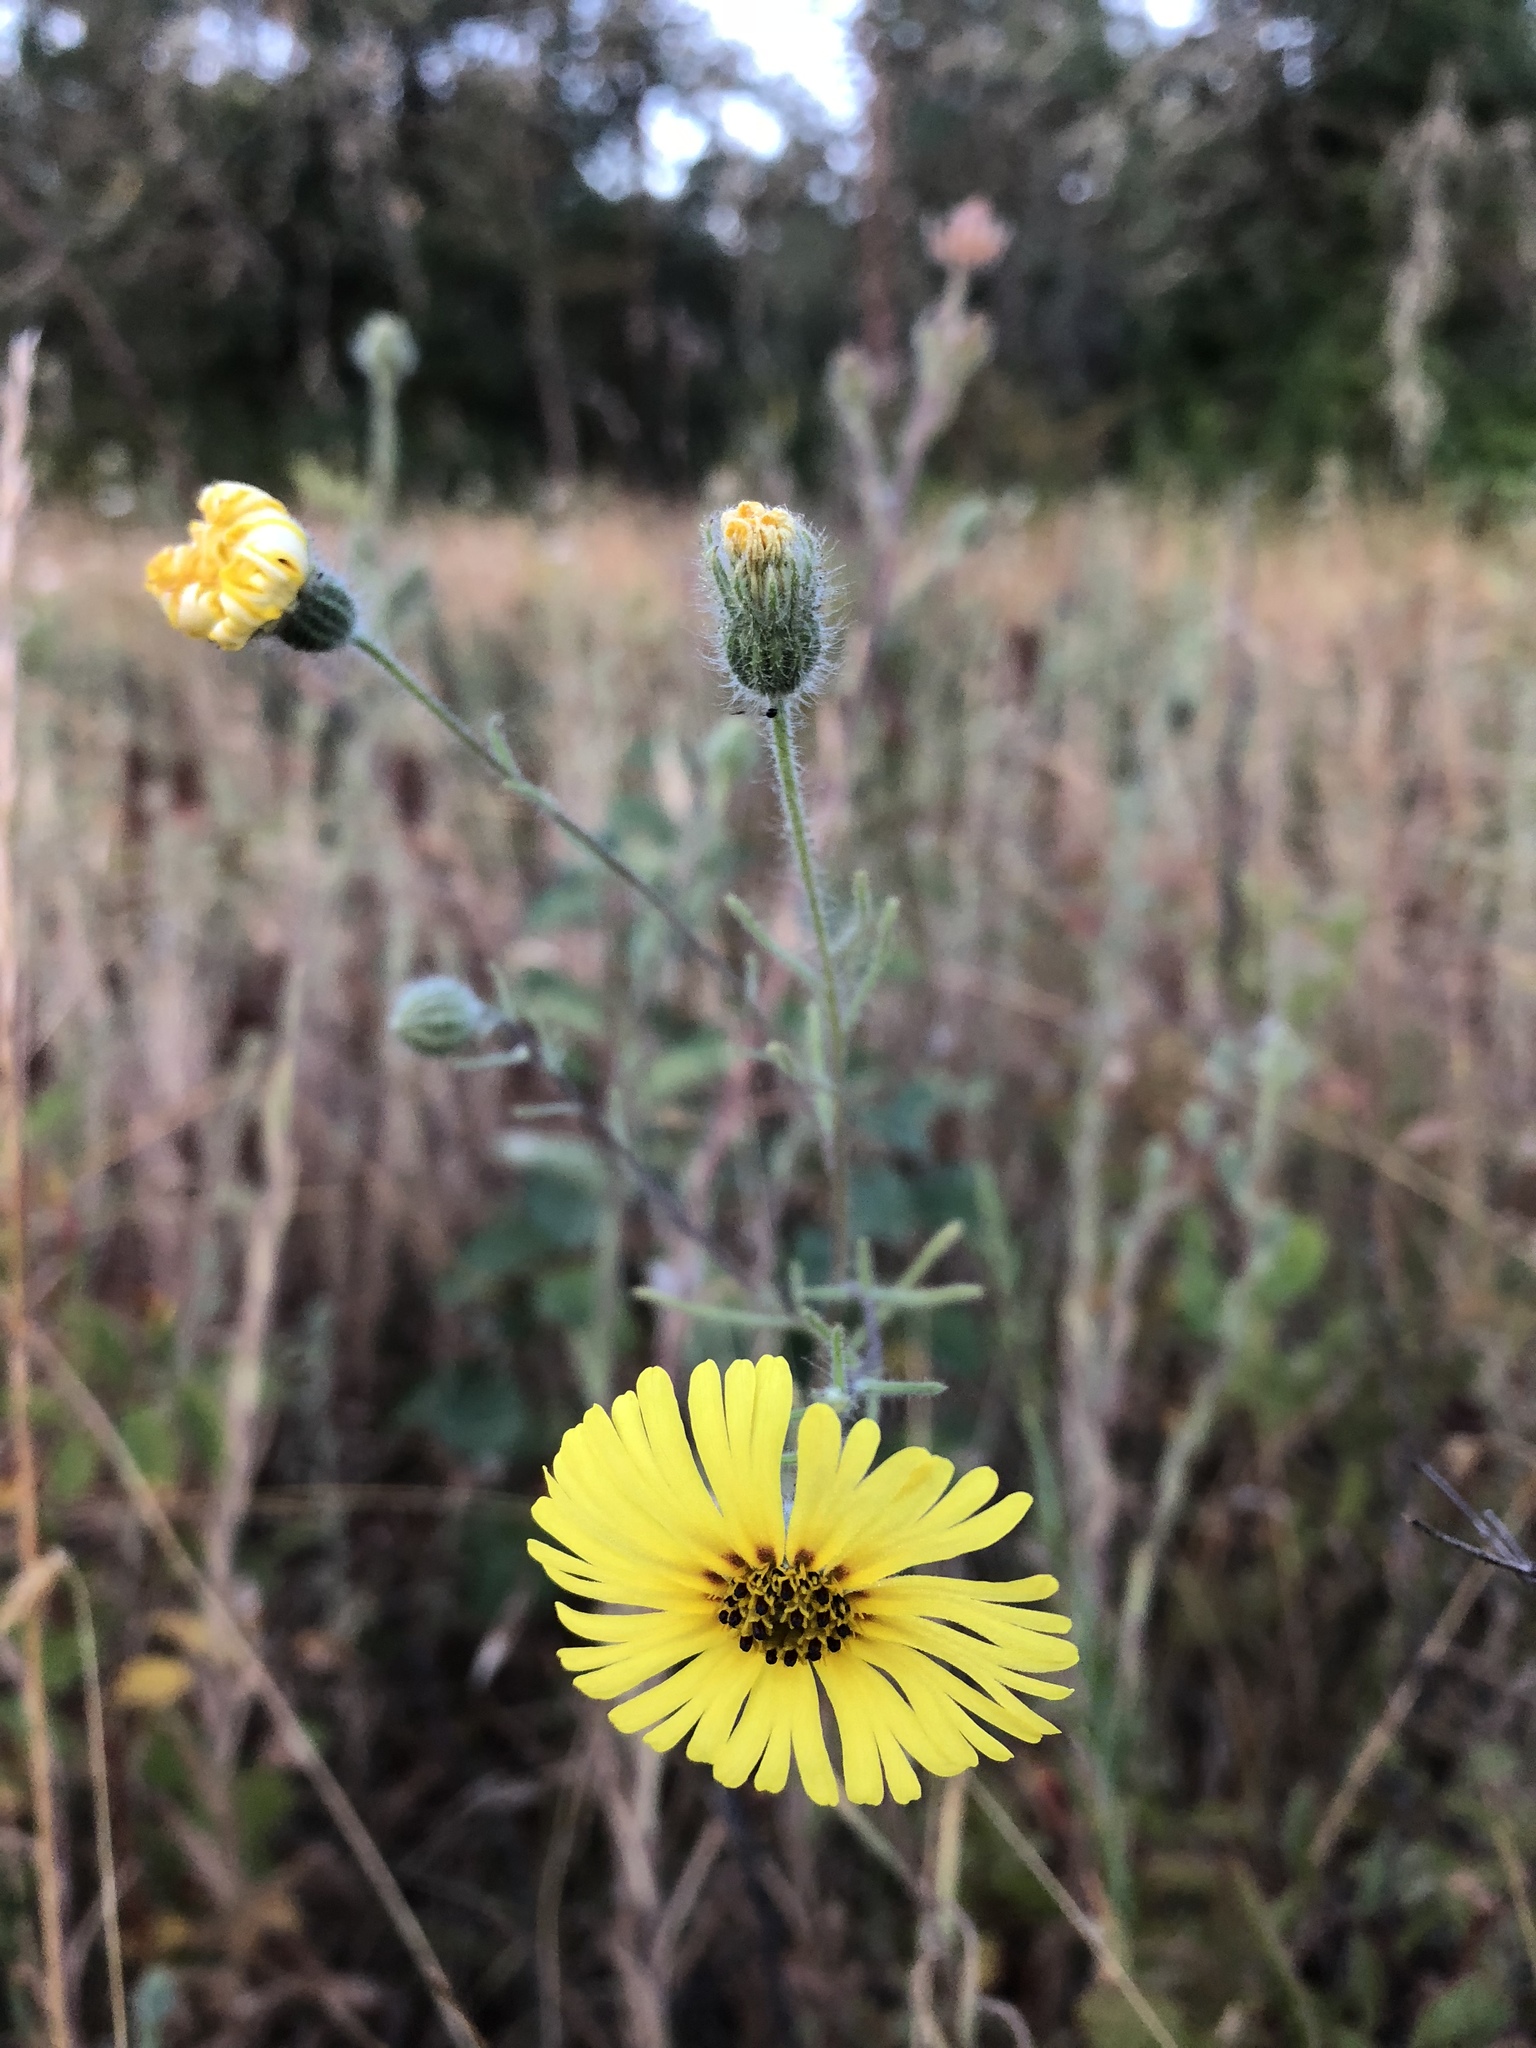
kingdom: Plantae
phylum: Tracheophyta
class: Magnoliopsida
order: Asterales
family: Asteraceae
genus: Madia
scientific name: Madia elegans
